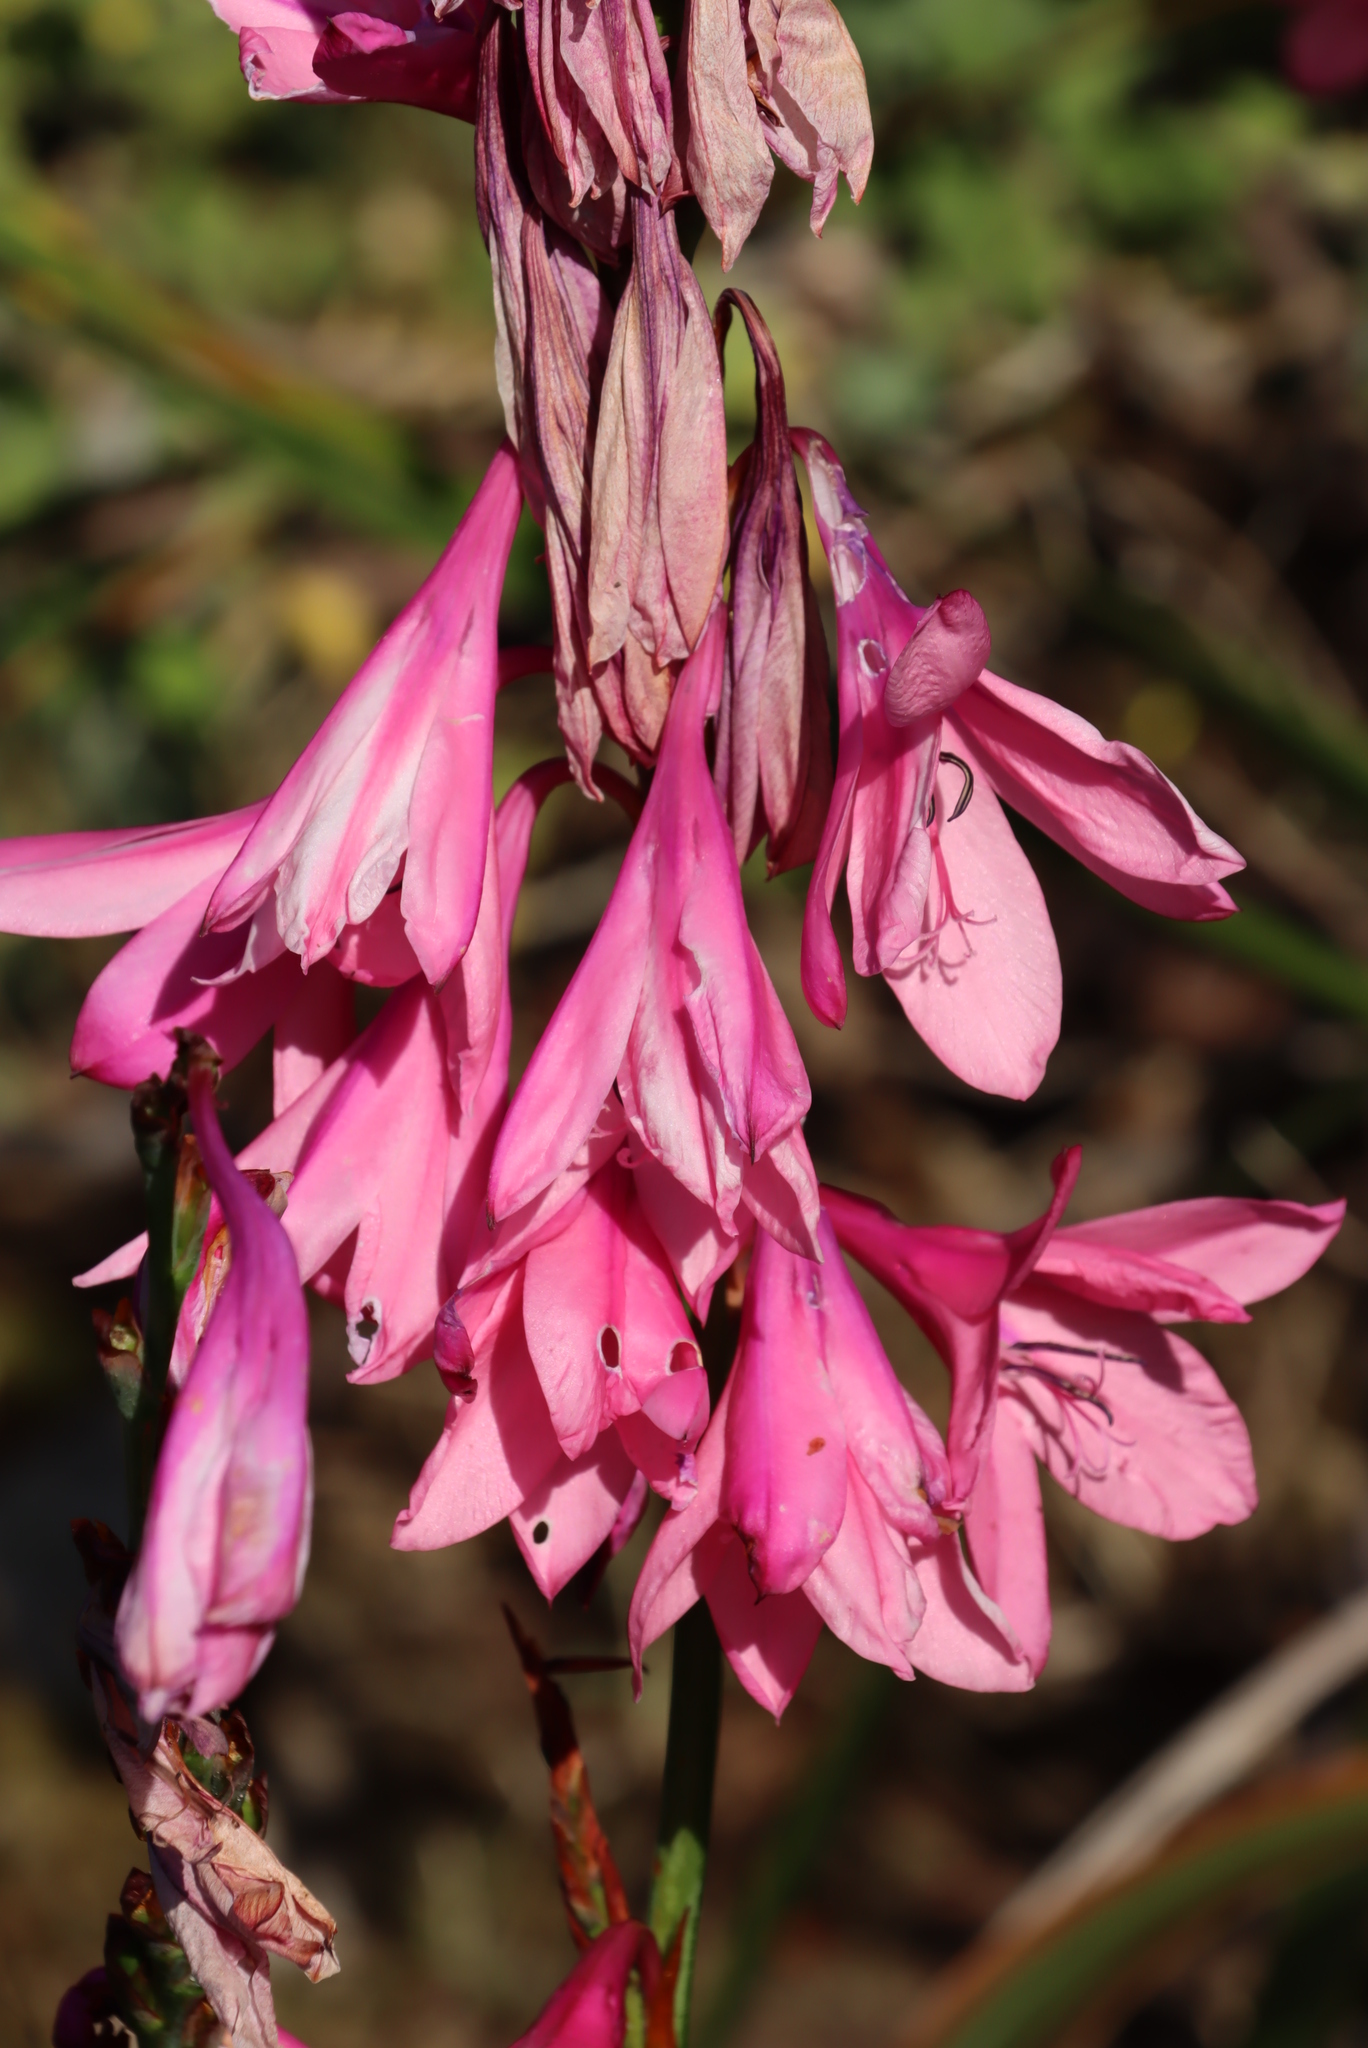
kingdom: Plantae
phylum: Tracheophyta
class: Liliopsida
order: Asparagales
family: Iridaceae
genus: Watsonia
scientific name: Watsonia borbonica
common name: Bugle-lily
